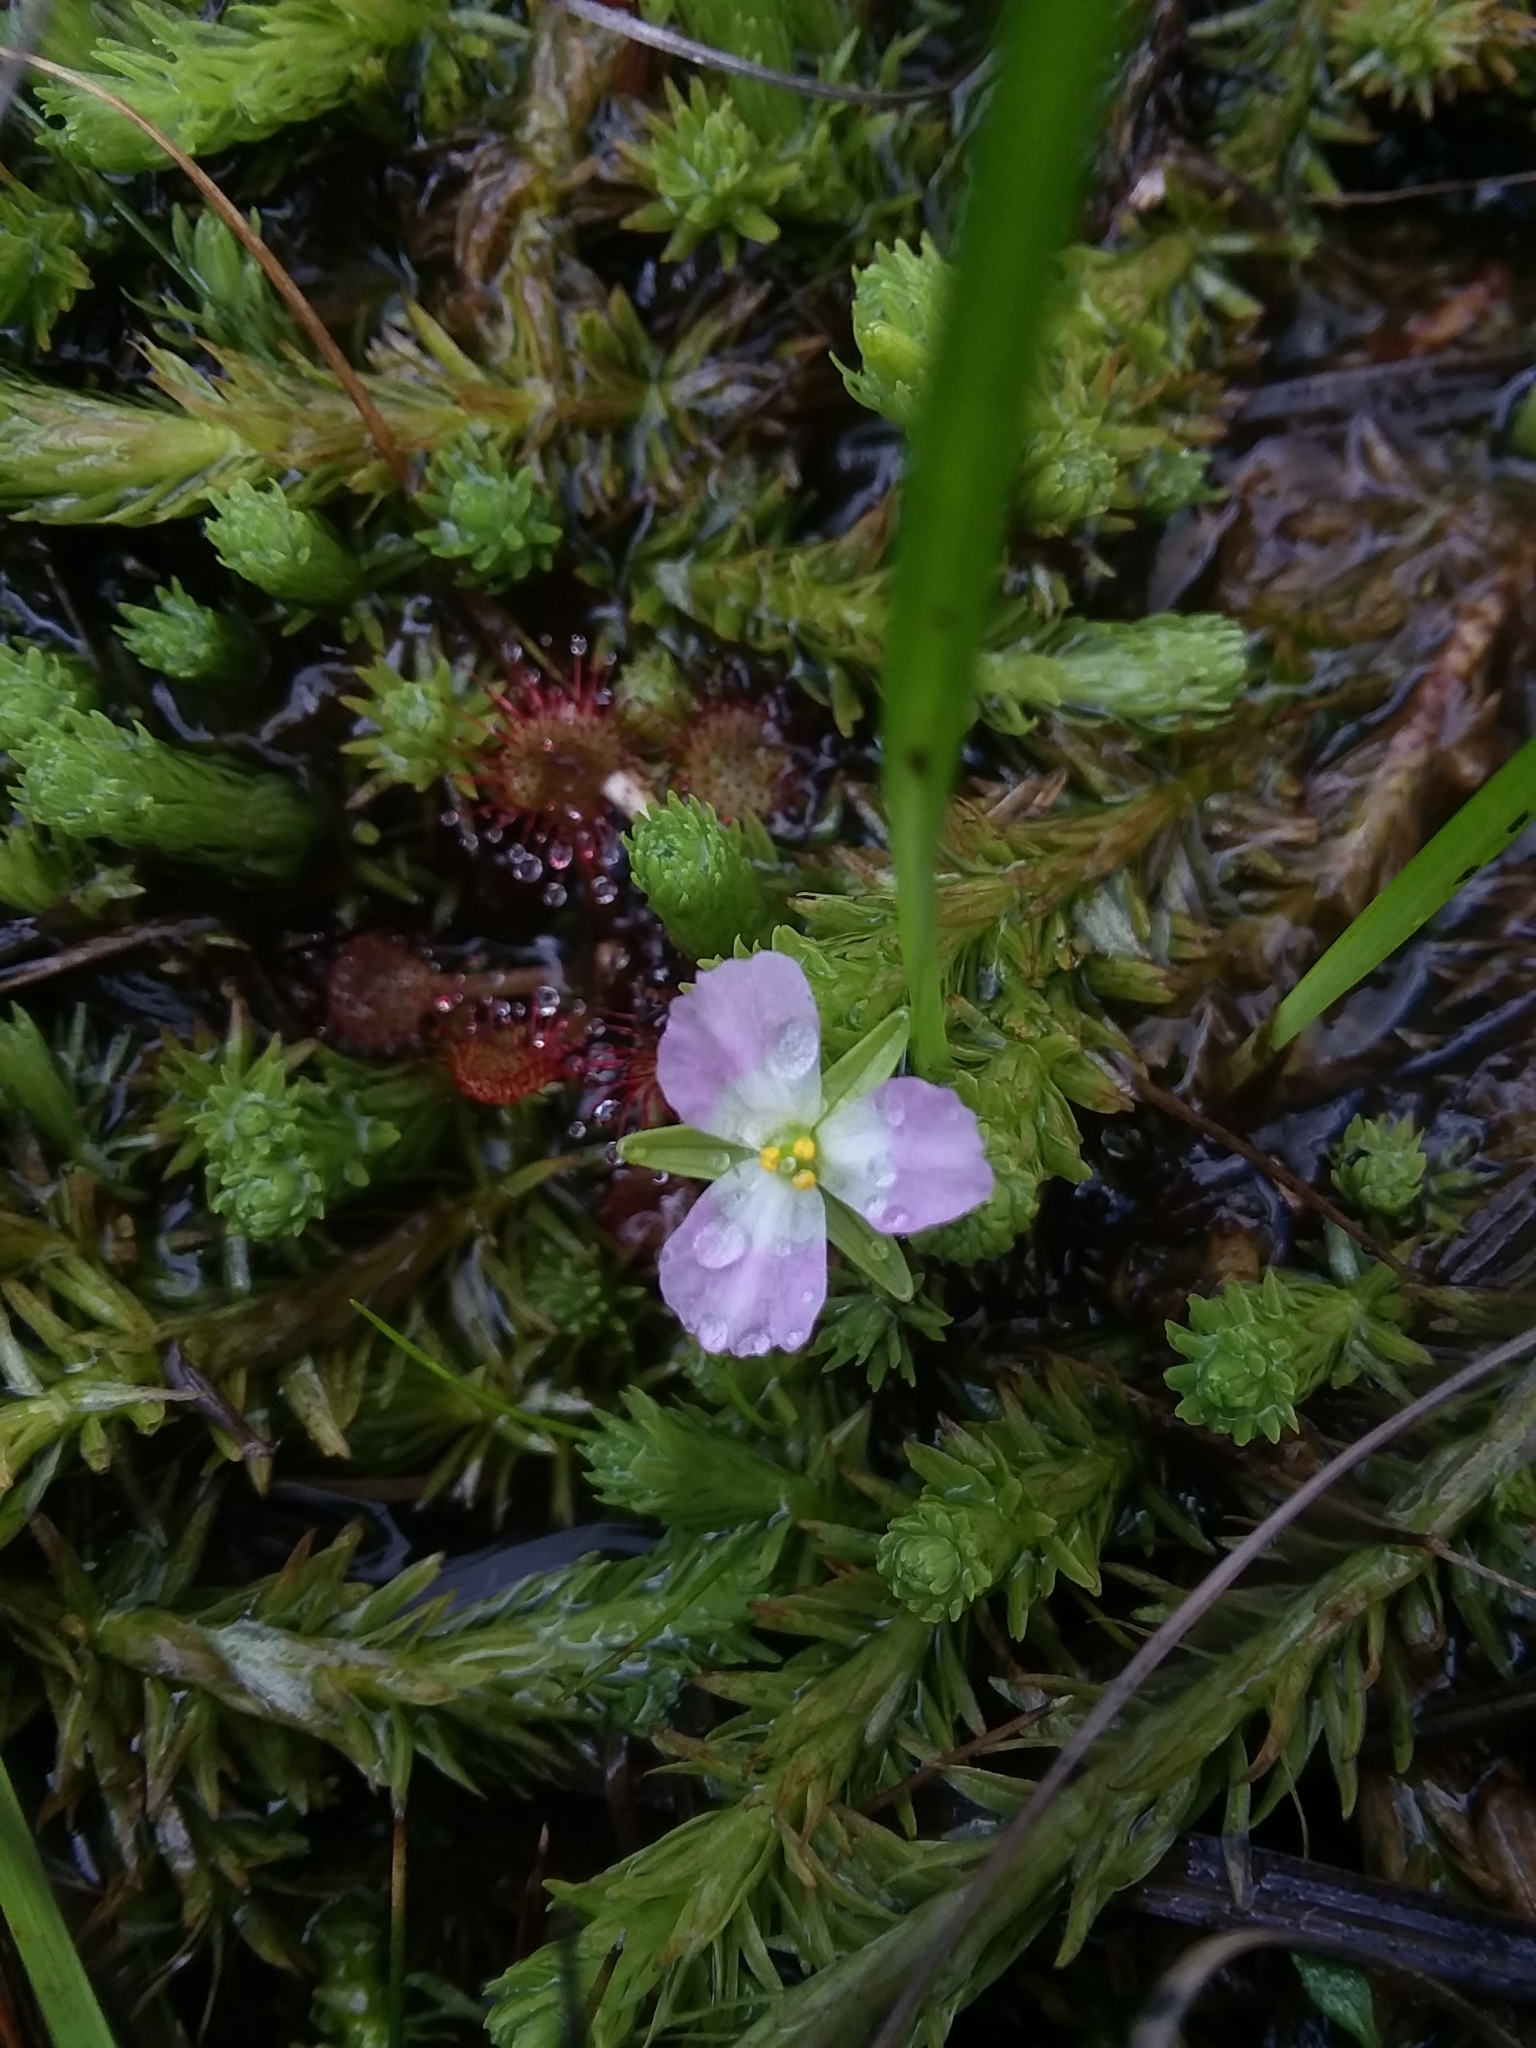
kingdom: Plantae
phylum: Tracheophyta
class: Liliopsida
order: Poales
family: Mayacaceae
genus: Mayaca
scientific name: Mayaca fluviatilis
